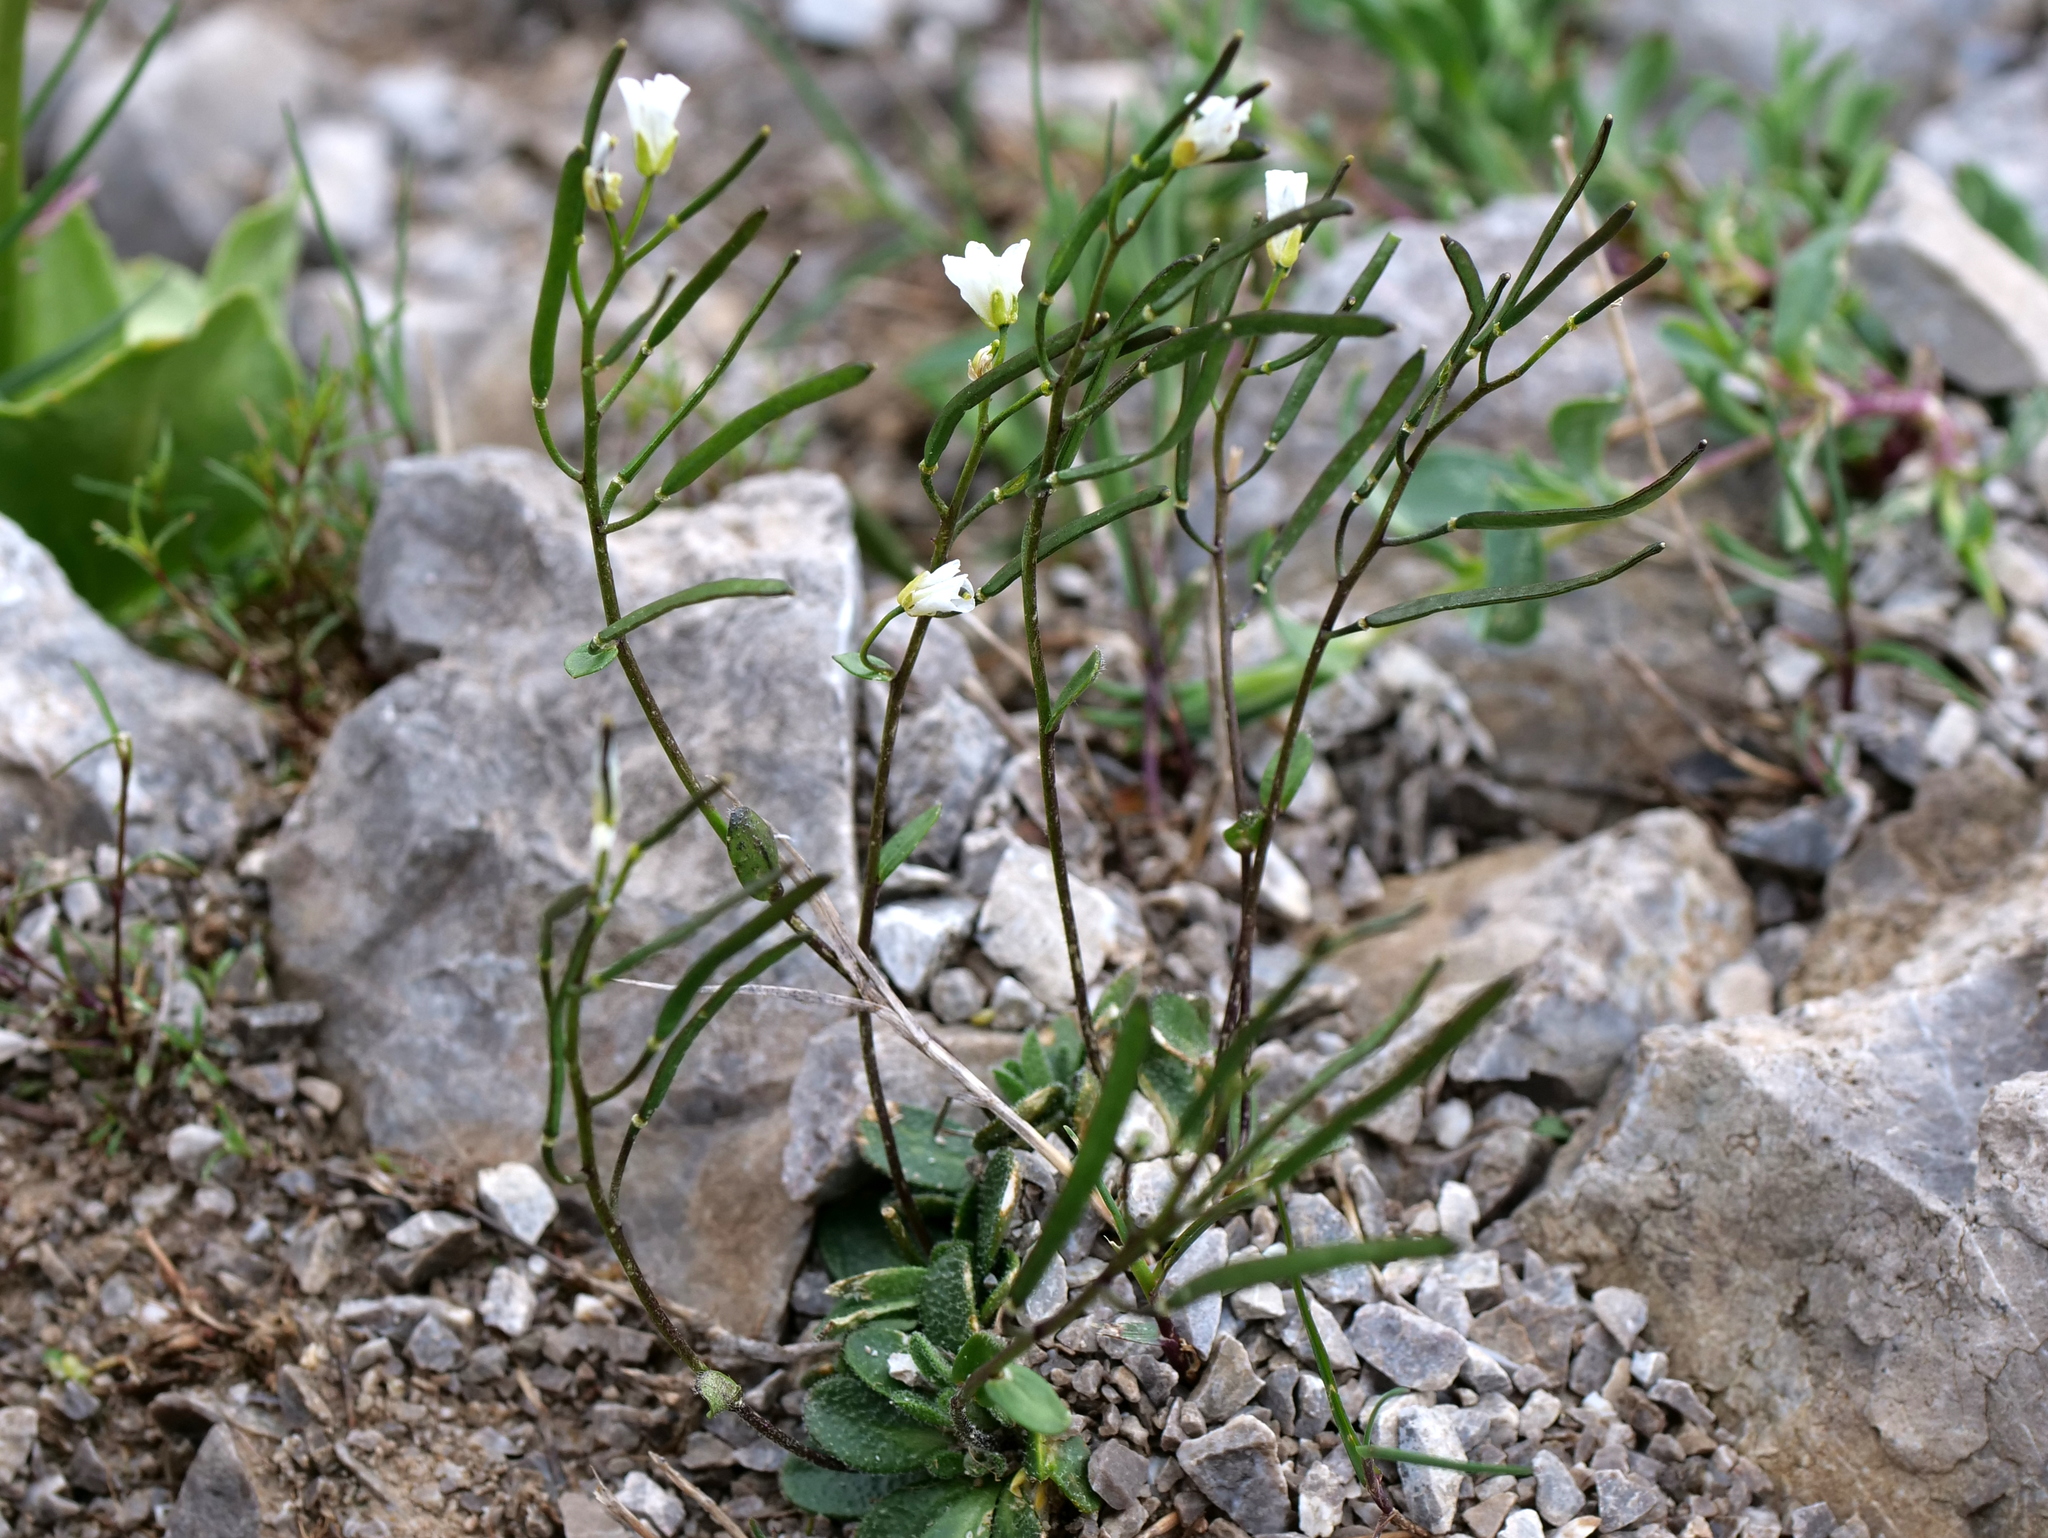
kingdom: Plantae
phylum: Tracheophyta
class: Magnoliopsida
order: Brassicales
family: Brassicaceae
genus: Arabis
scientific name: Arabis stellulata
